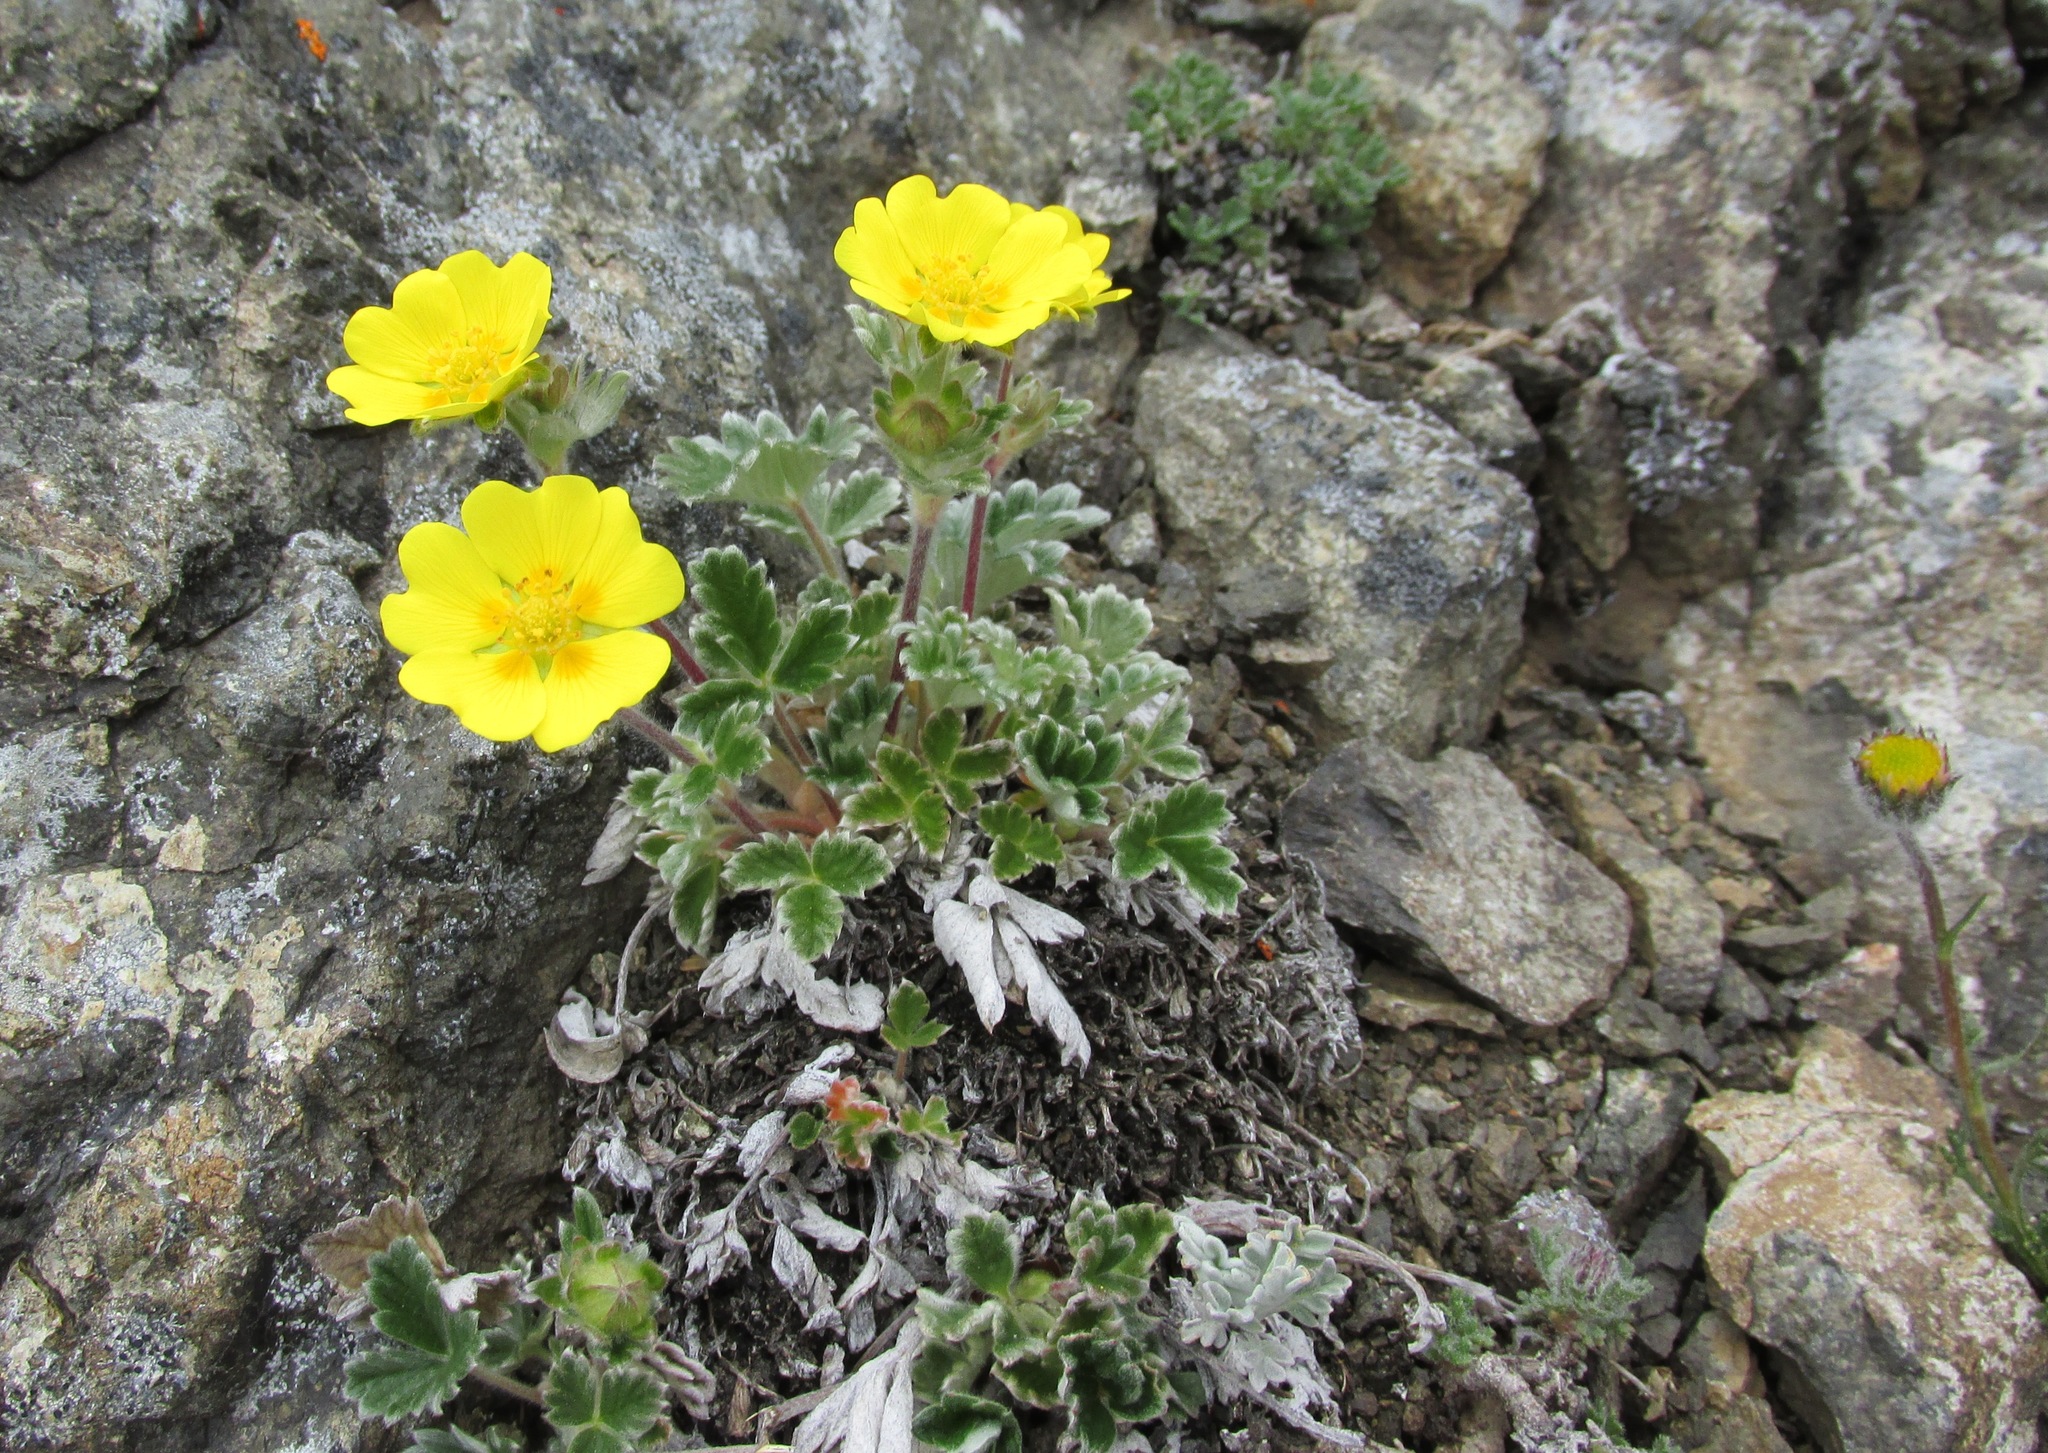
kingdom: Plantae
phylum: Tracheophyta
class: Magnoliopsida
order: Rosales
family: Rosaceae
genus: Potentilla
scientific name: Potentilla villosa
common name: Northern cinquefoil
